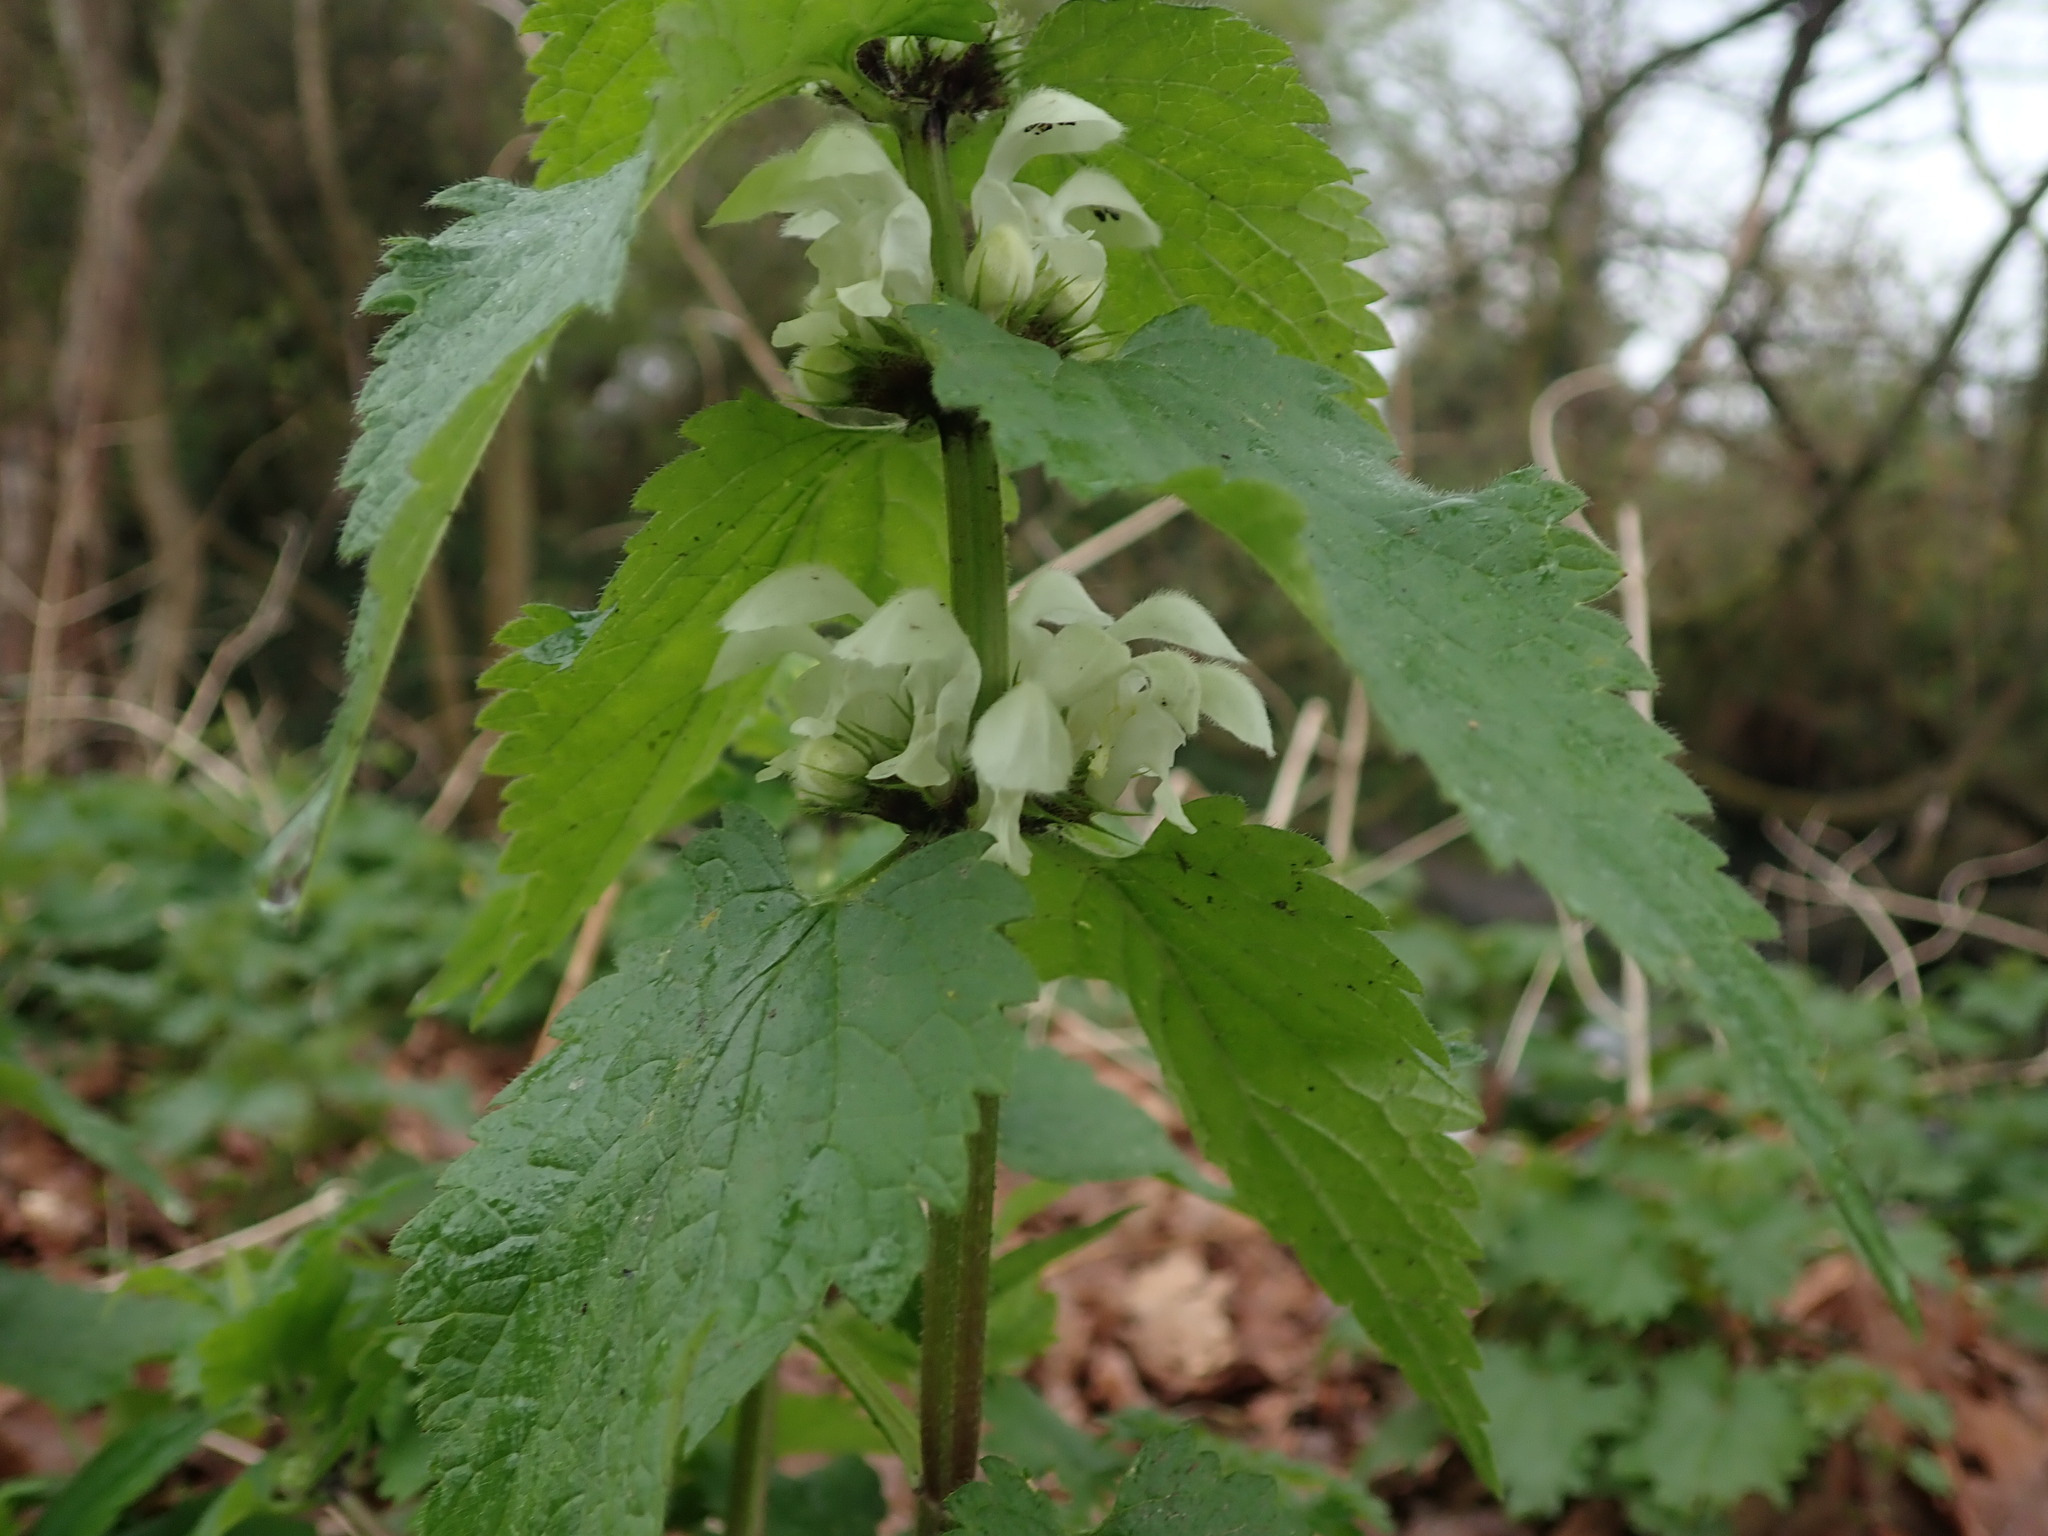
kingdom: Plantae
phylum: Tracheophyta
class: Magnoliopsida
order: Lamiales
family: Lamiaceae
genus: Lamium
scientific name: Lamium album
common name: White dead-nettle
